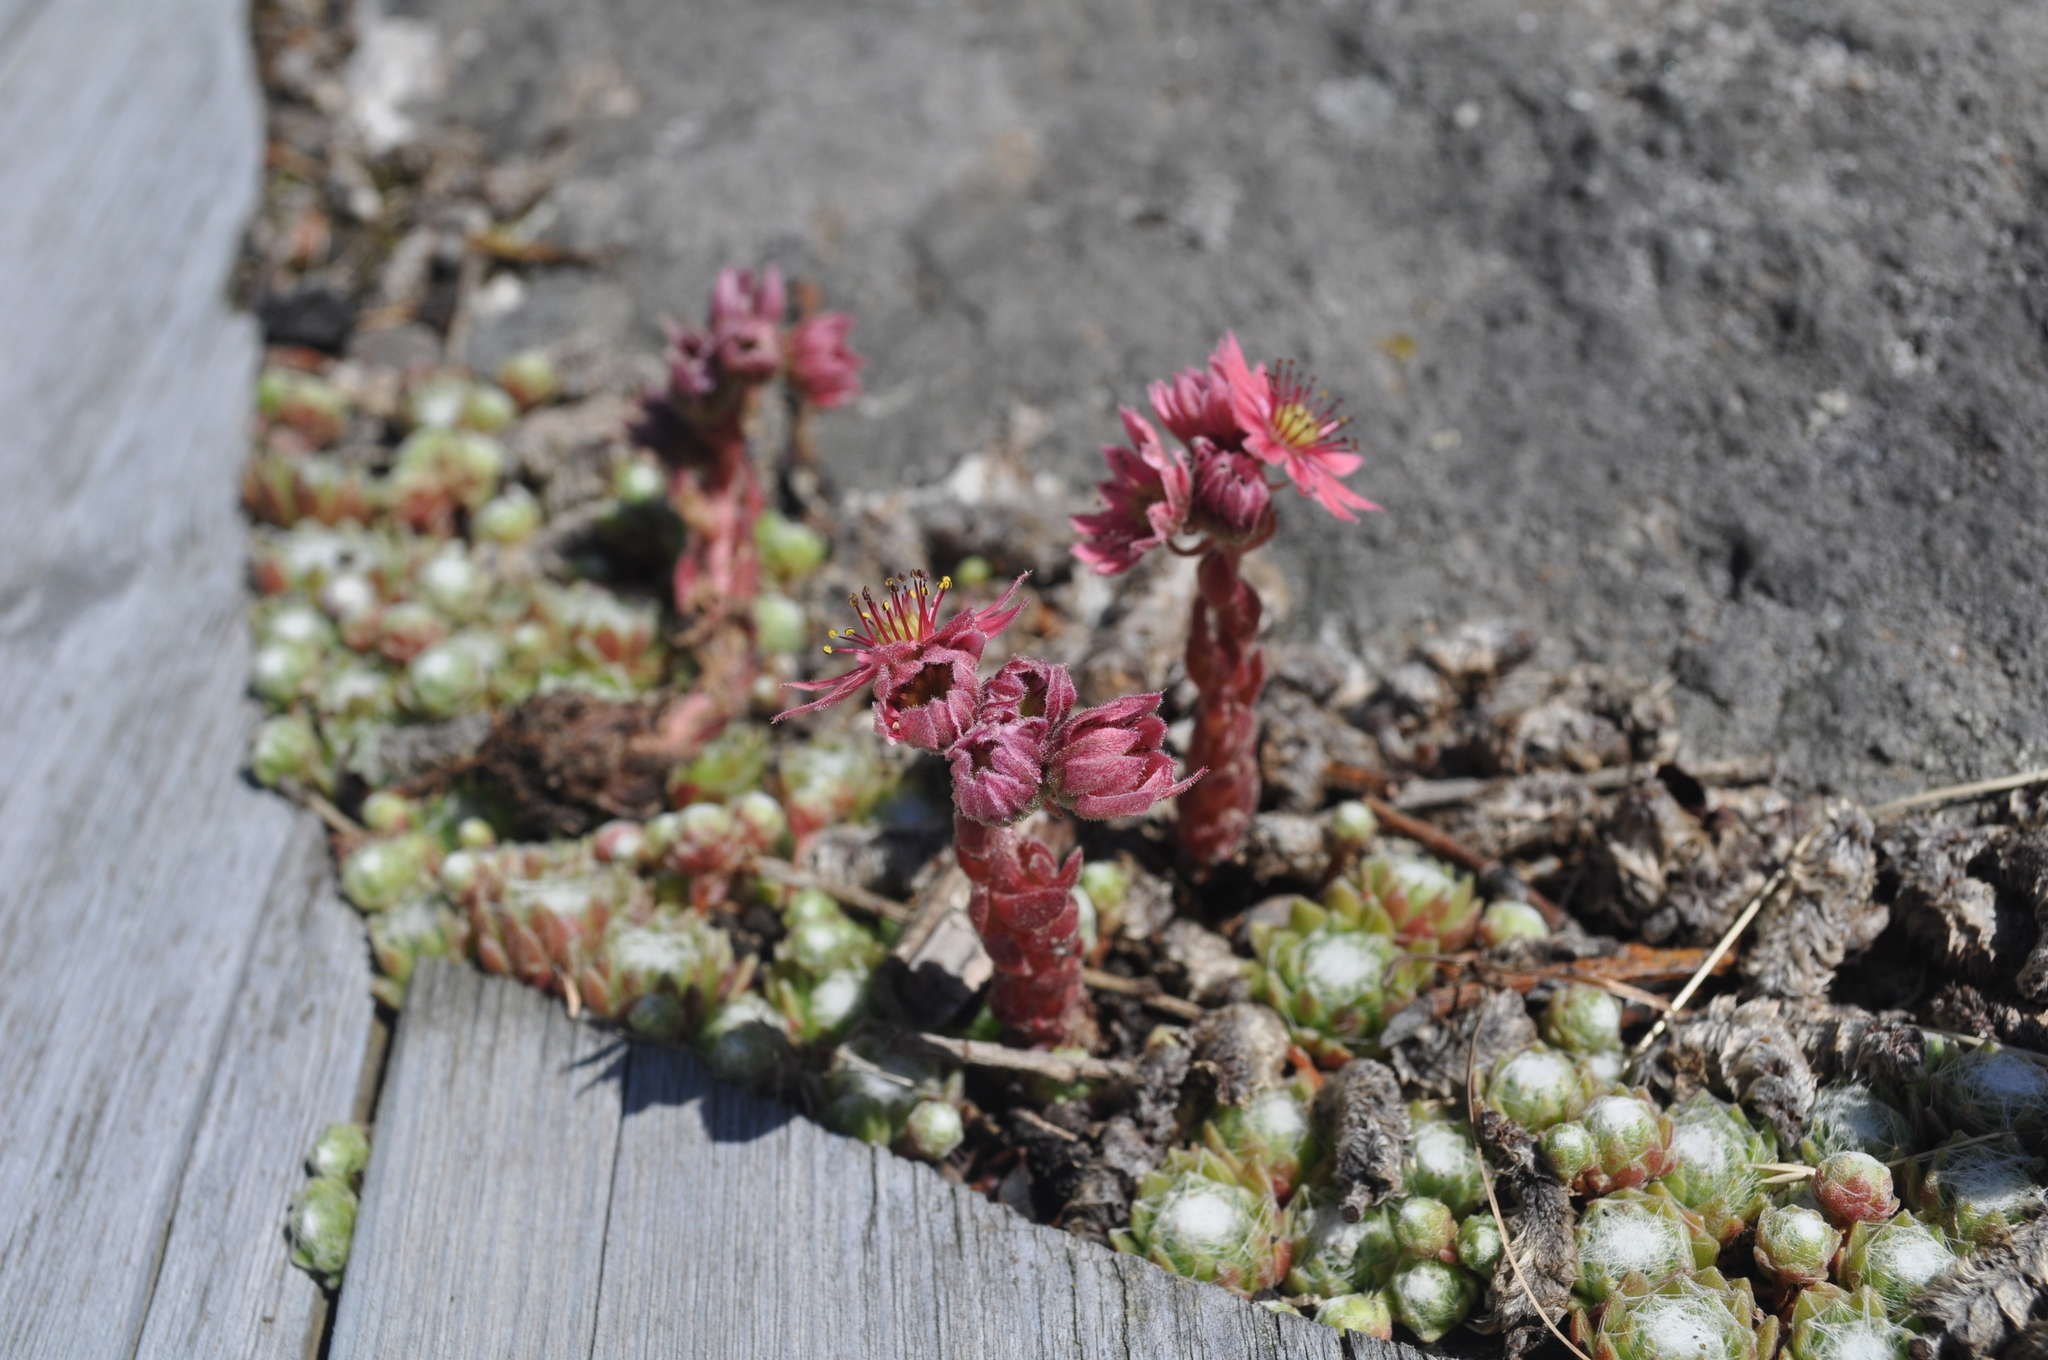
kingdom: Plantae
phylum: Tracheophyta
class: Magnoliopsida
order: Saxifragales
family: Crassulaceae
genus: Sempervivum
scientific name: Sempervivum arachnoideum
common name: Cobweb house-leek
